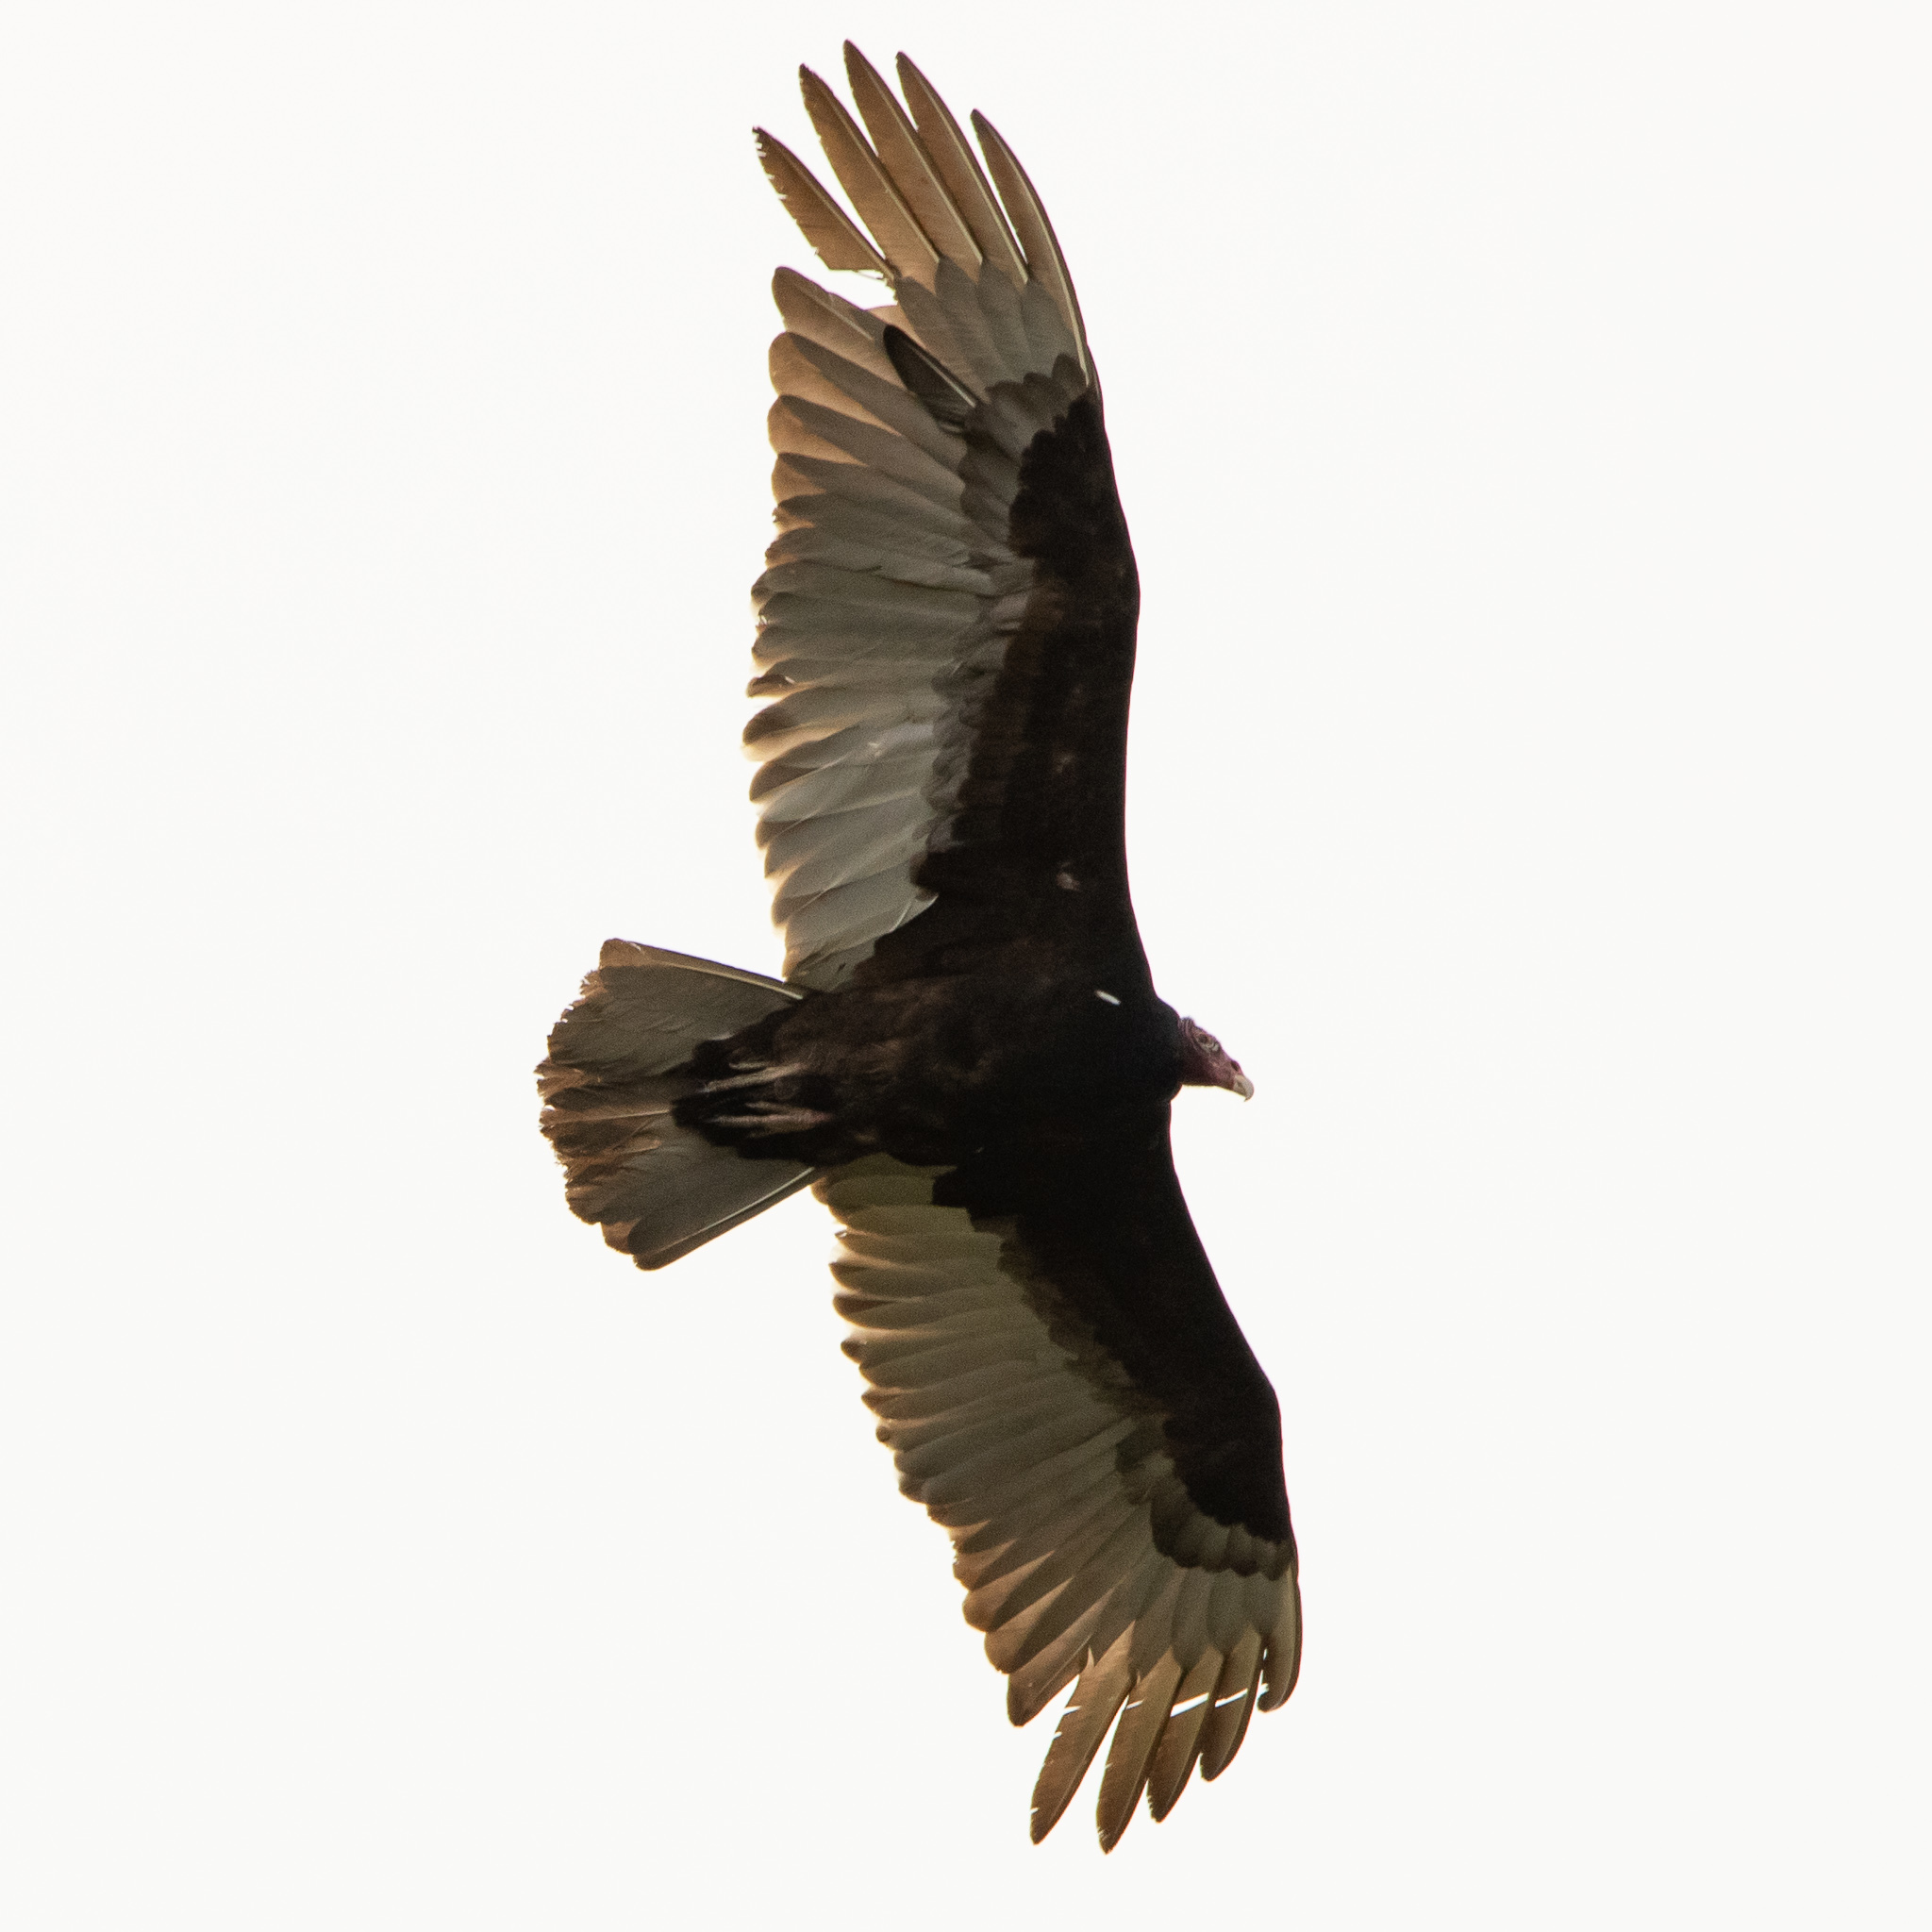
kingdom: Animalia
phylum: Chordata
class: Aves
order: Accipitriformes
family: Cathartidae
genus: Cathartes
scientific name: Cathartes aura
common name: Turkey vulture
